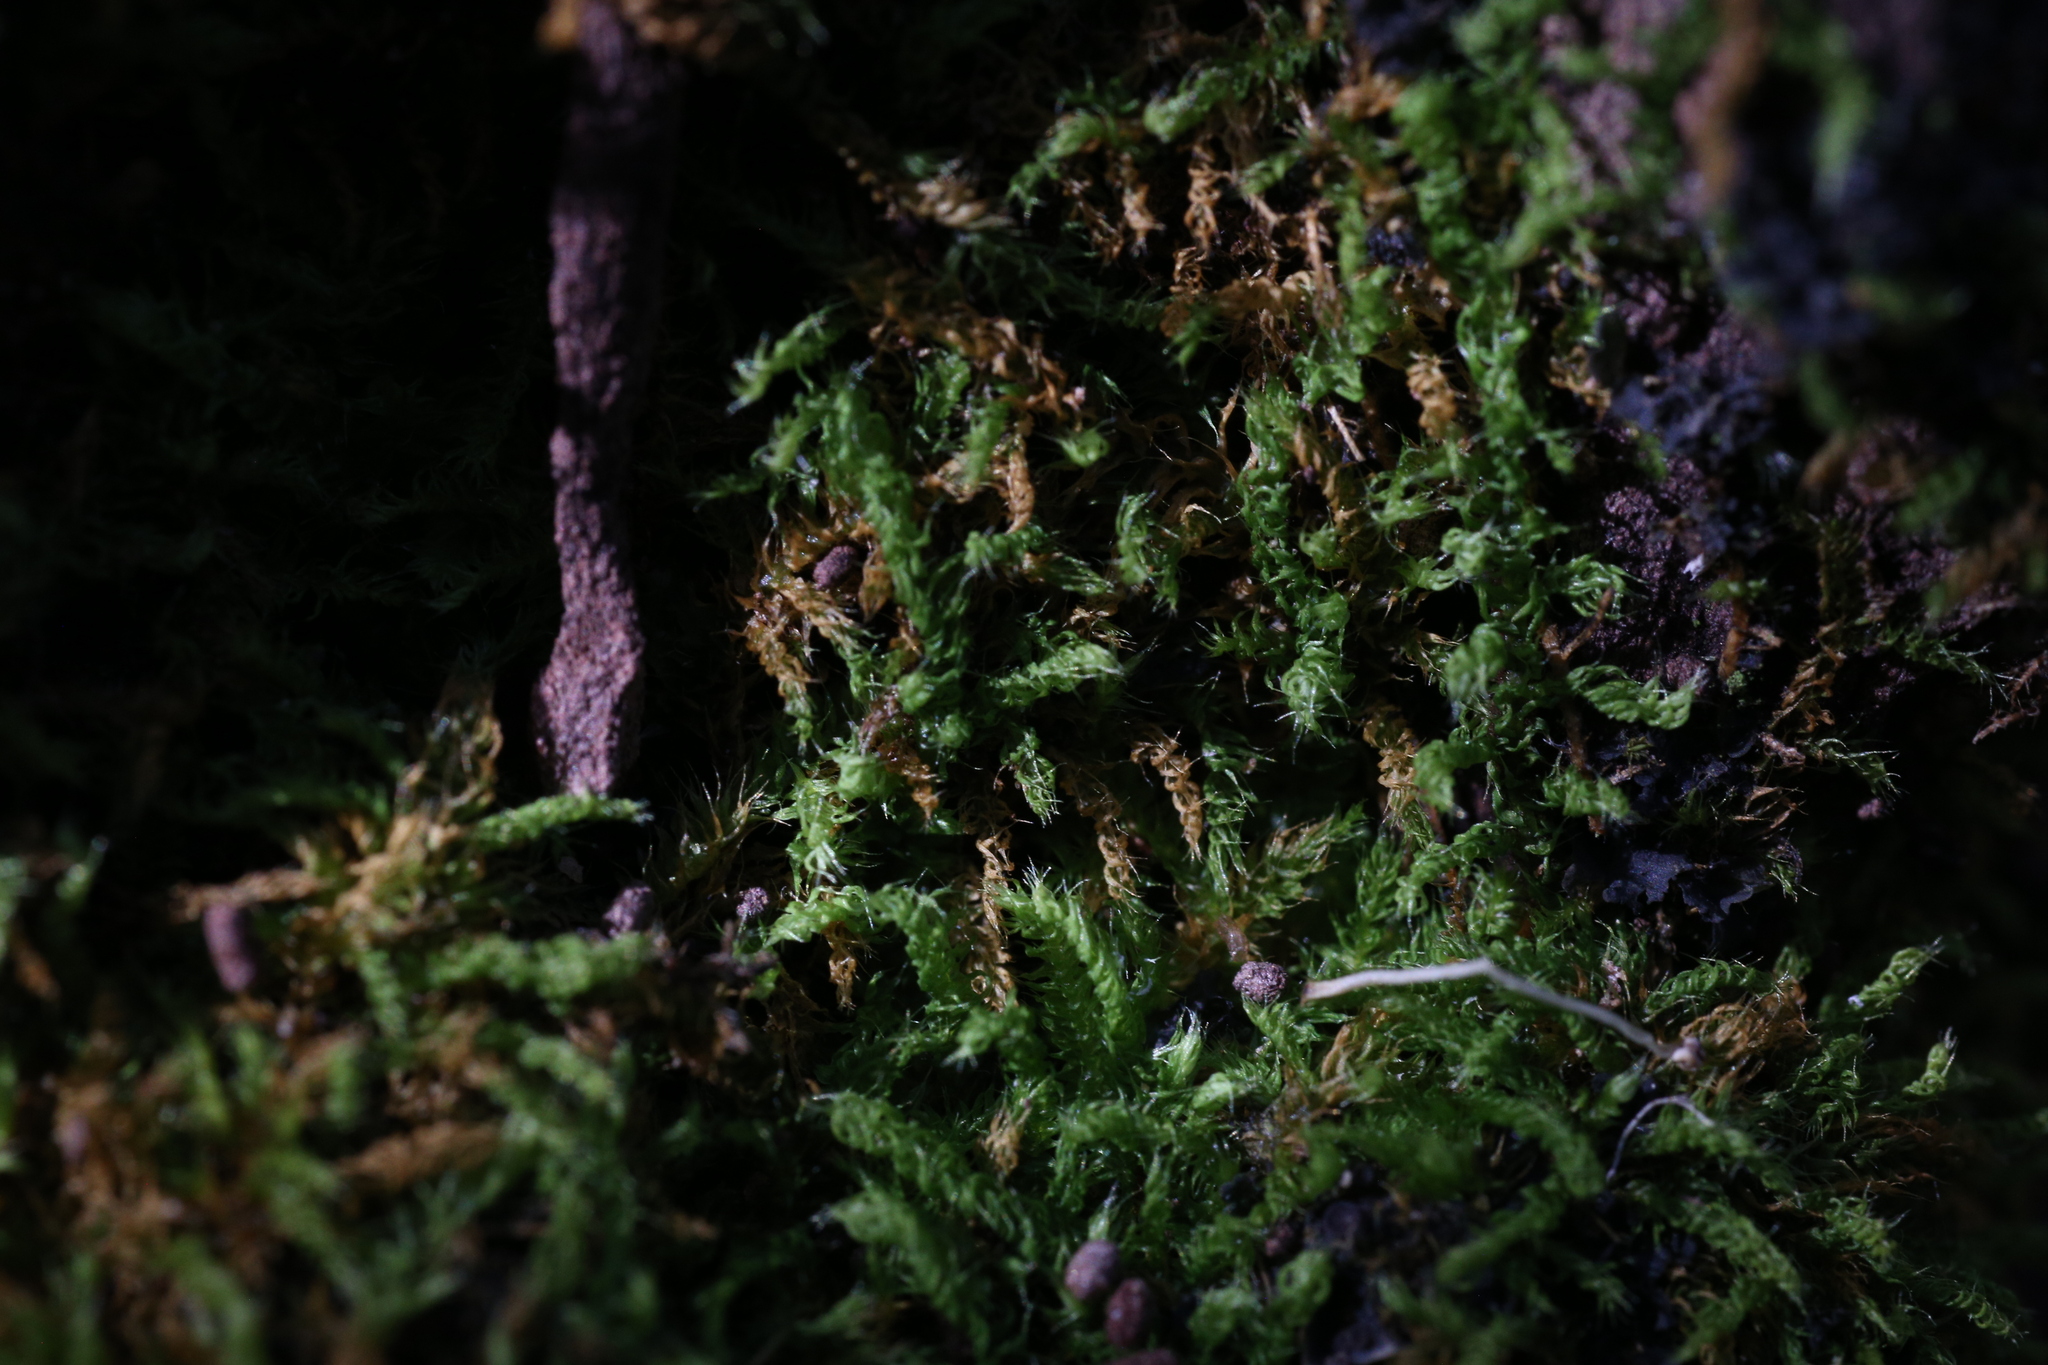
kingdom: Plantae
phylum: Bryophyta
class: Bryopsida
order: Hypnodendrales
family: Racopilaceae
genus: Racopilum
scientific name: Racopilum cuspidigerum
